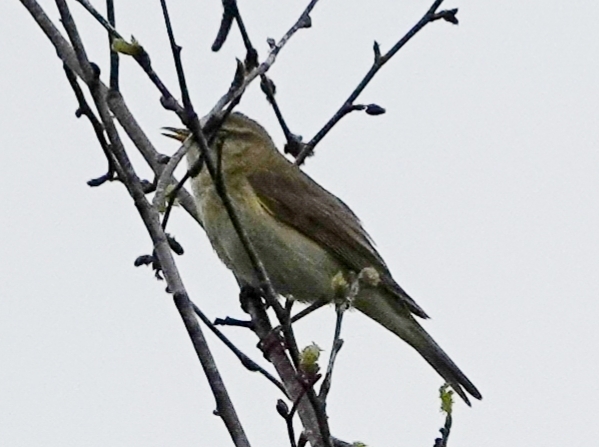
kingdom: Animalia
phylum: Chordata
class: Aves
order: Passeriformes
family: Phylloscopidae
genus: Phylloscopus
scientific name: Phylloscopus trochilus
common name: Willow warbler
